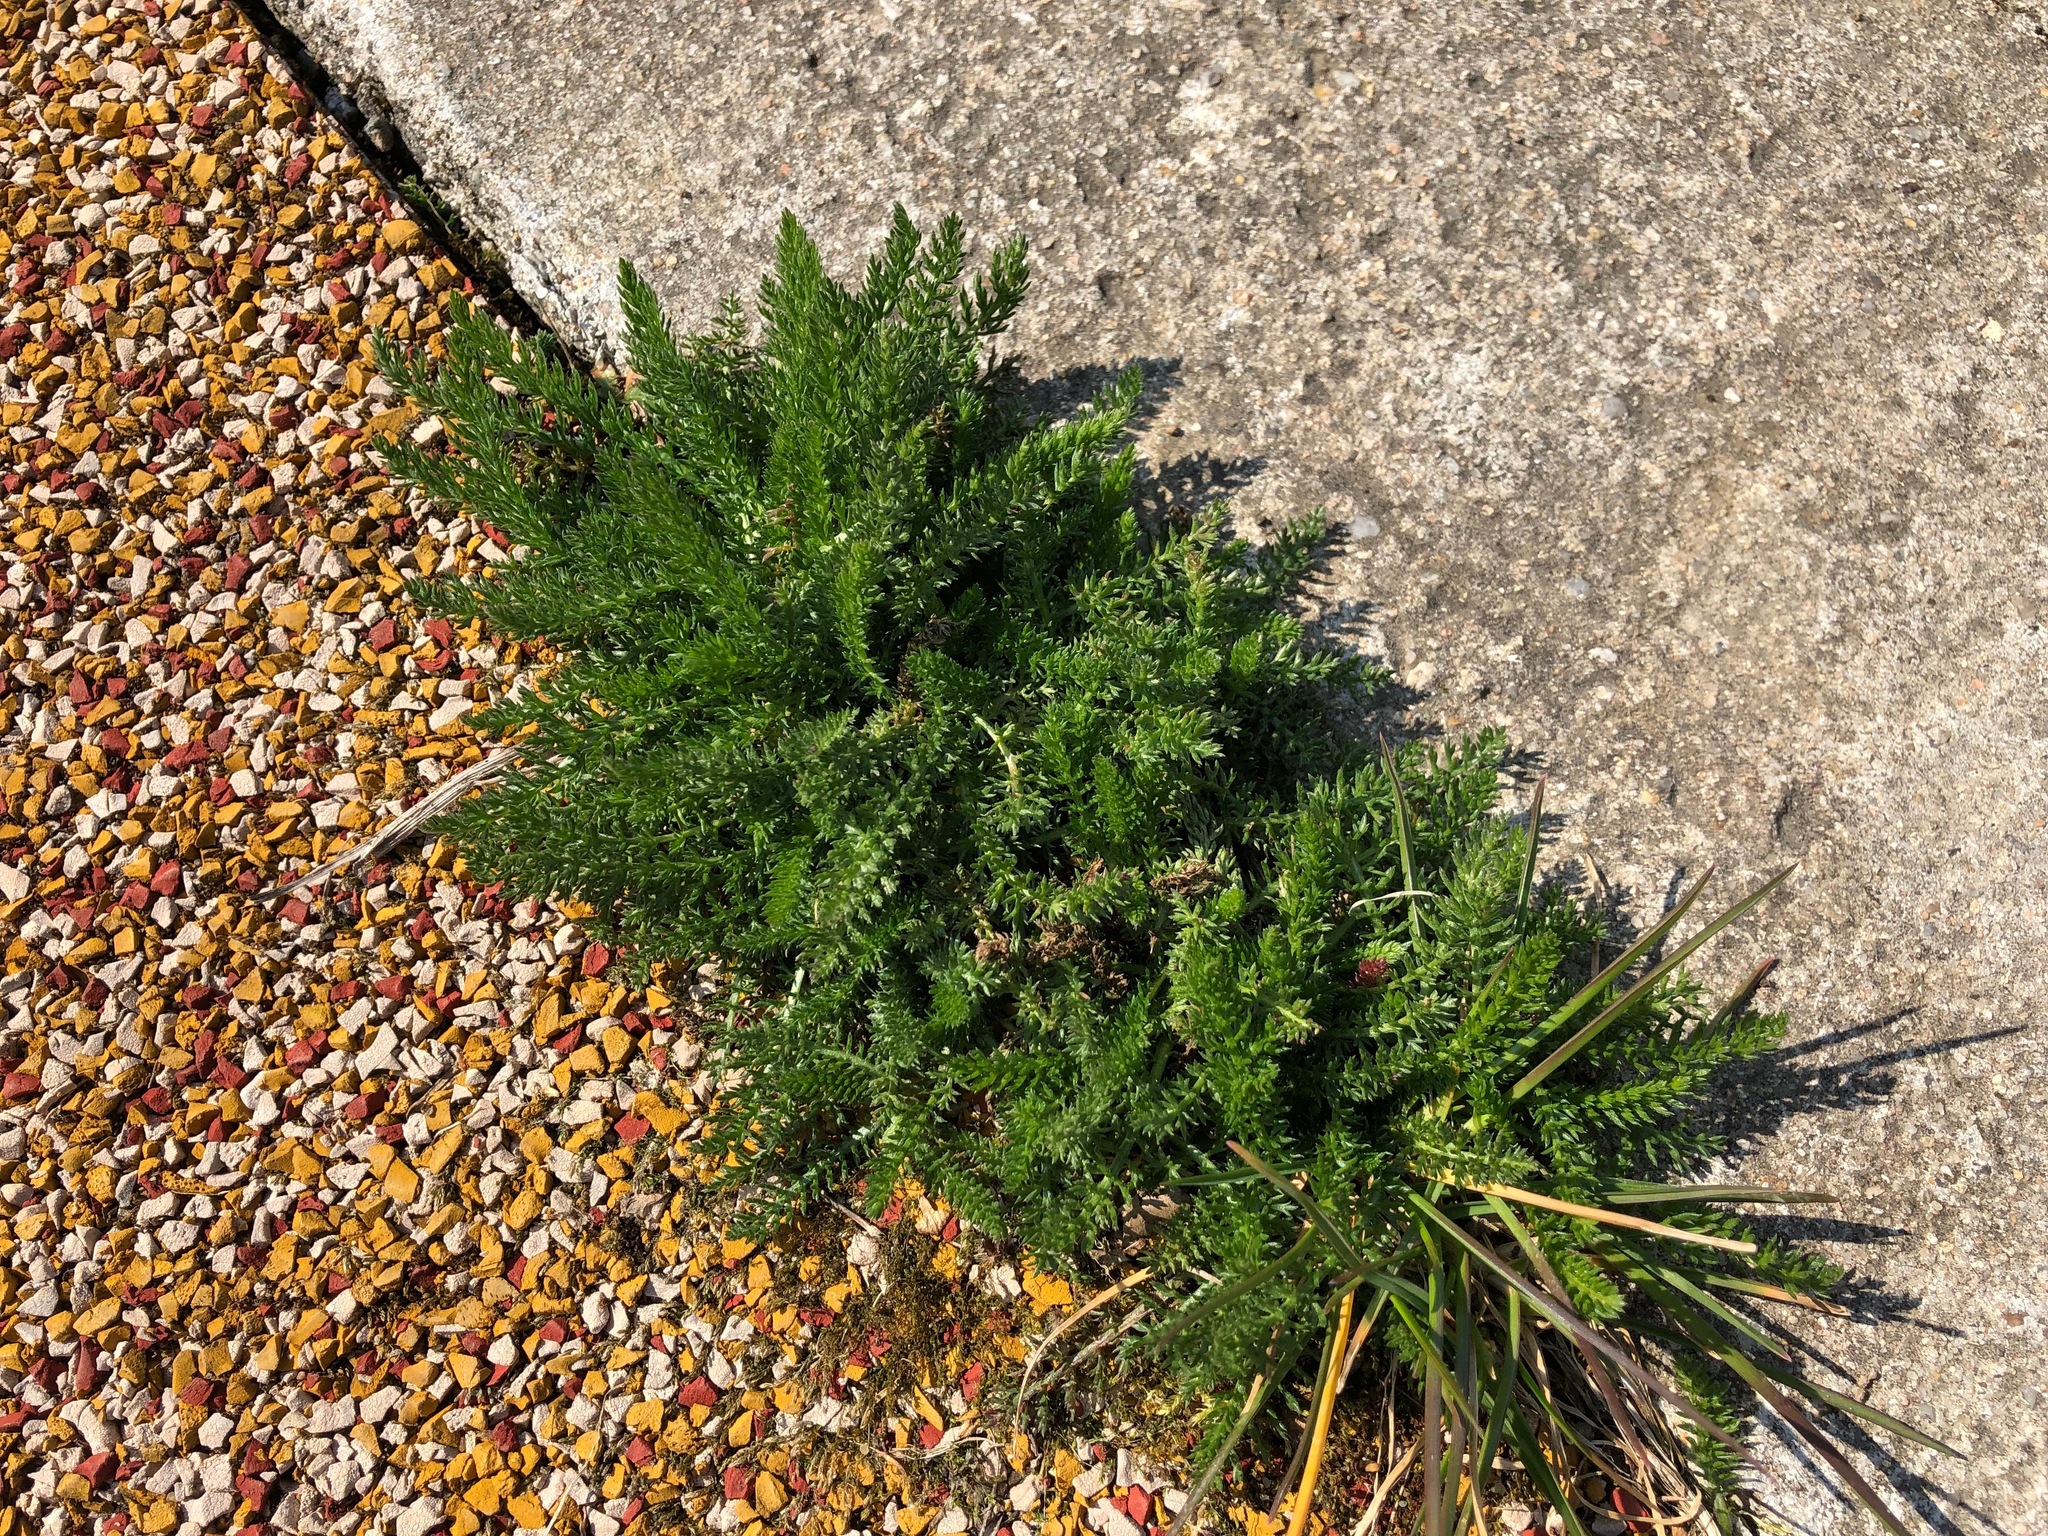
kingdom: Plantae
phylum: Tracheophyta
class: Magnoliopsida
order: Asterales
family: Asteraceae
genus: Achillea
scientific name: Achillea millefolium
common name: Yarrow
